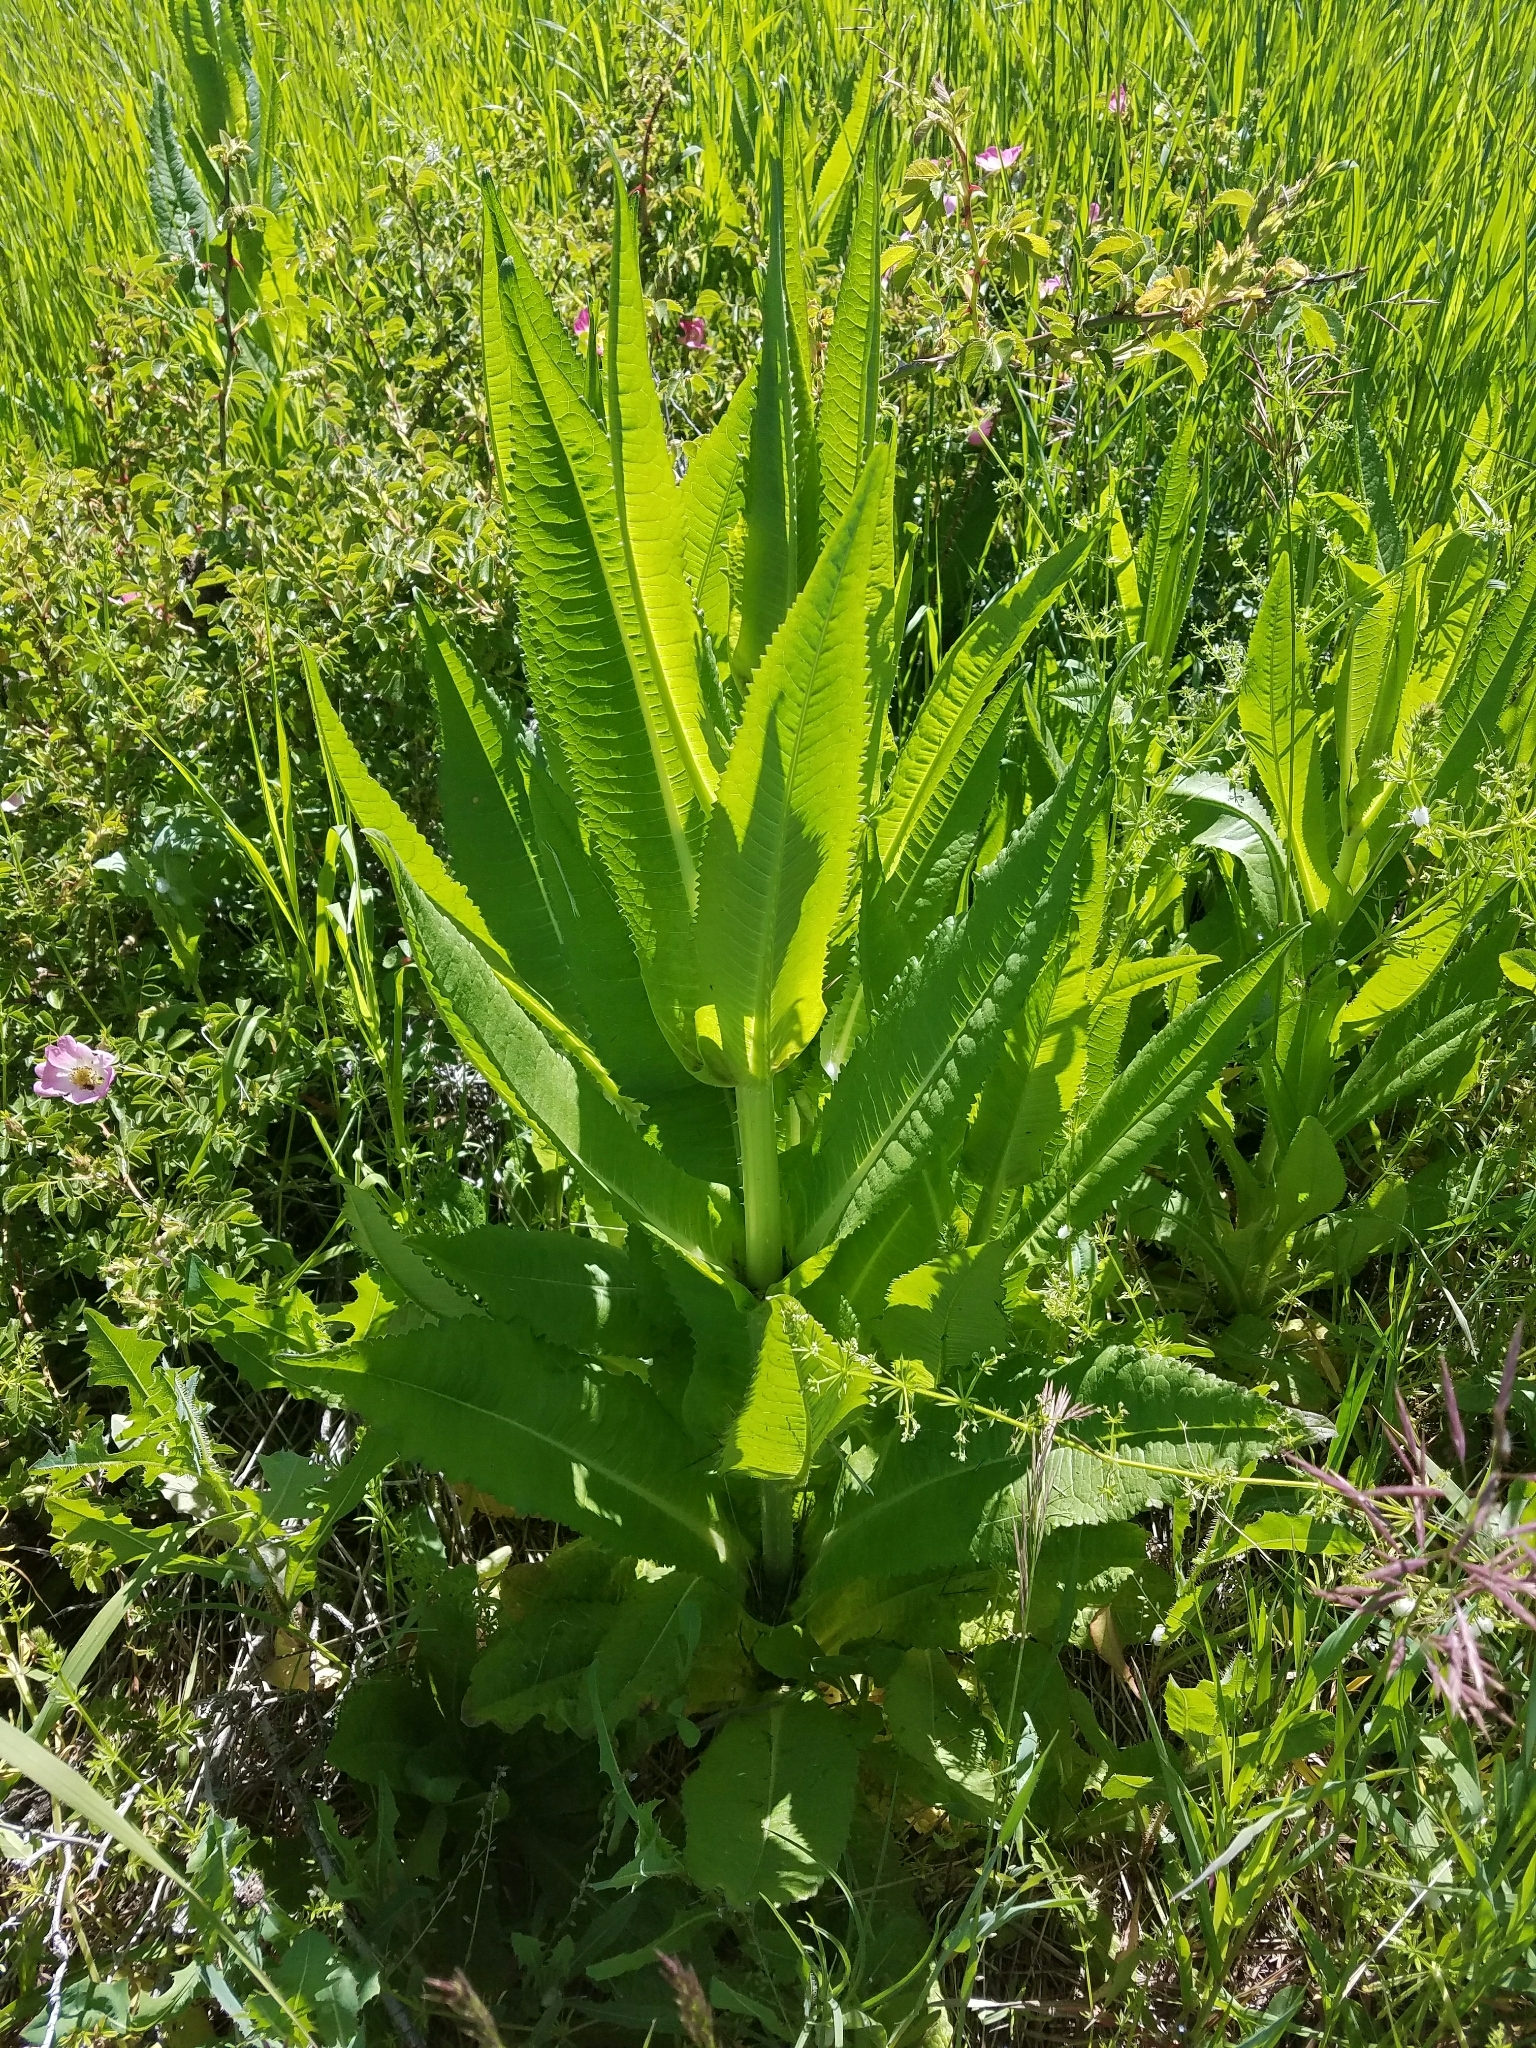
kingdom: Plantae
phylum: Tracheophyta
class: Magnoliopsida
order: Dipsacales
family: Caprifoliaceae
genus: Dipsacus
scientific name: Dipsacus fullonum
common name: Teasel
